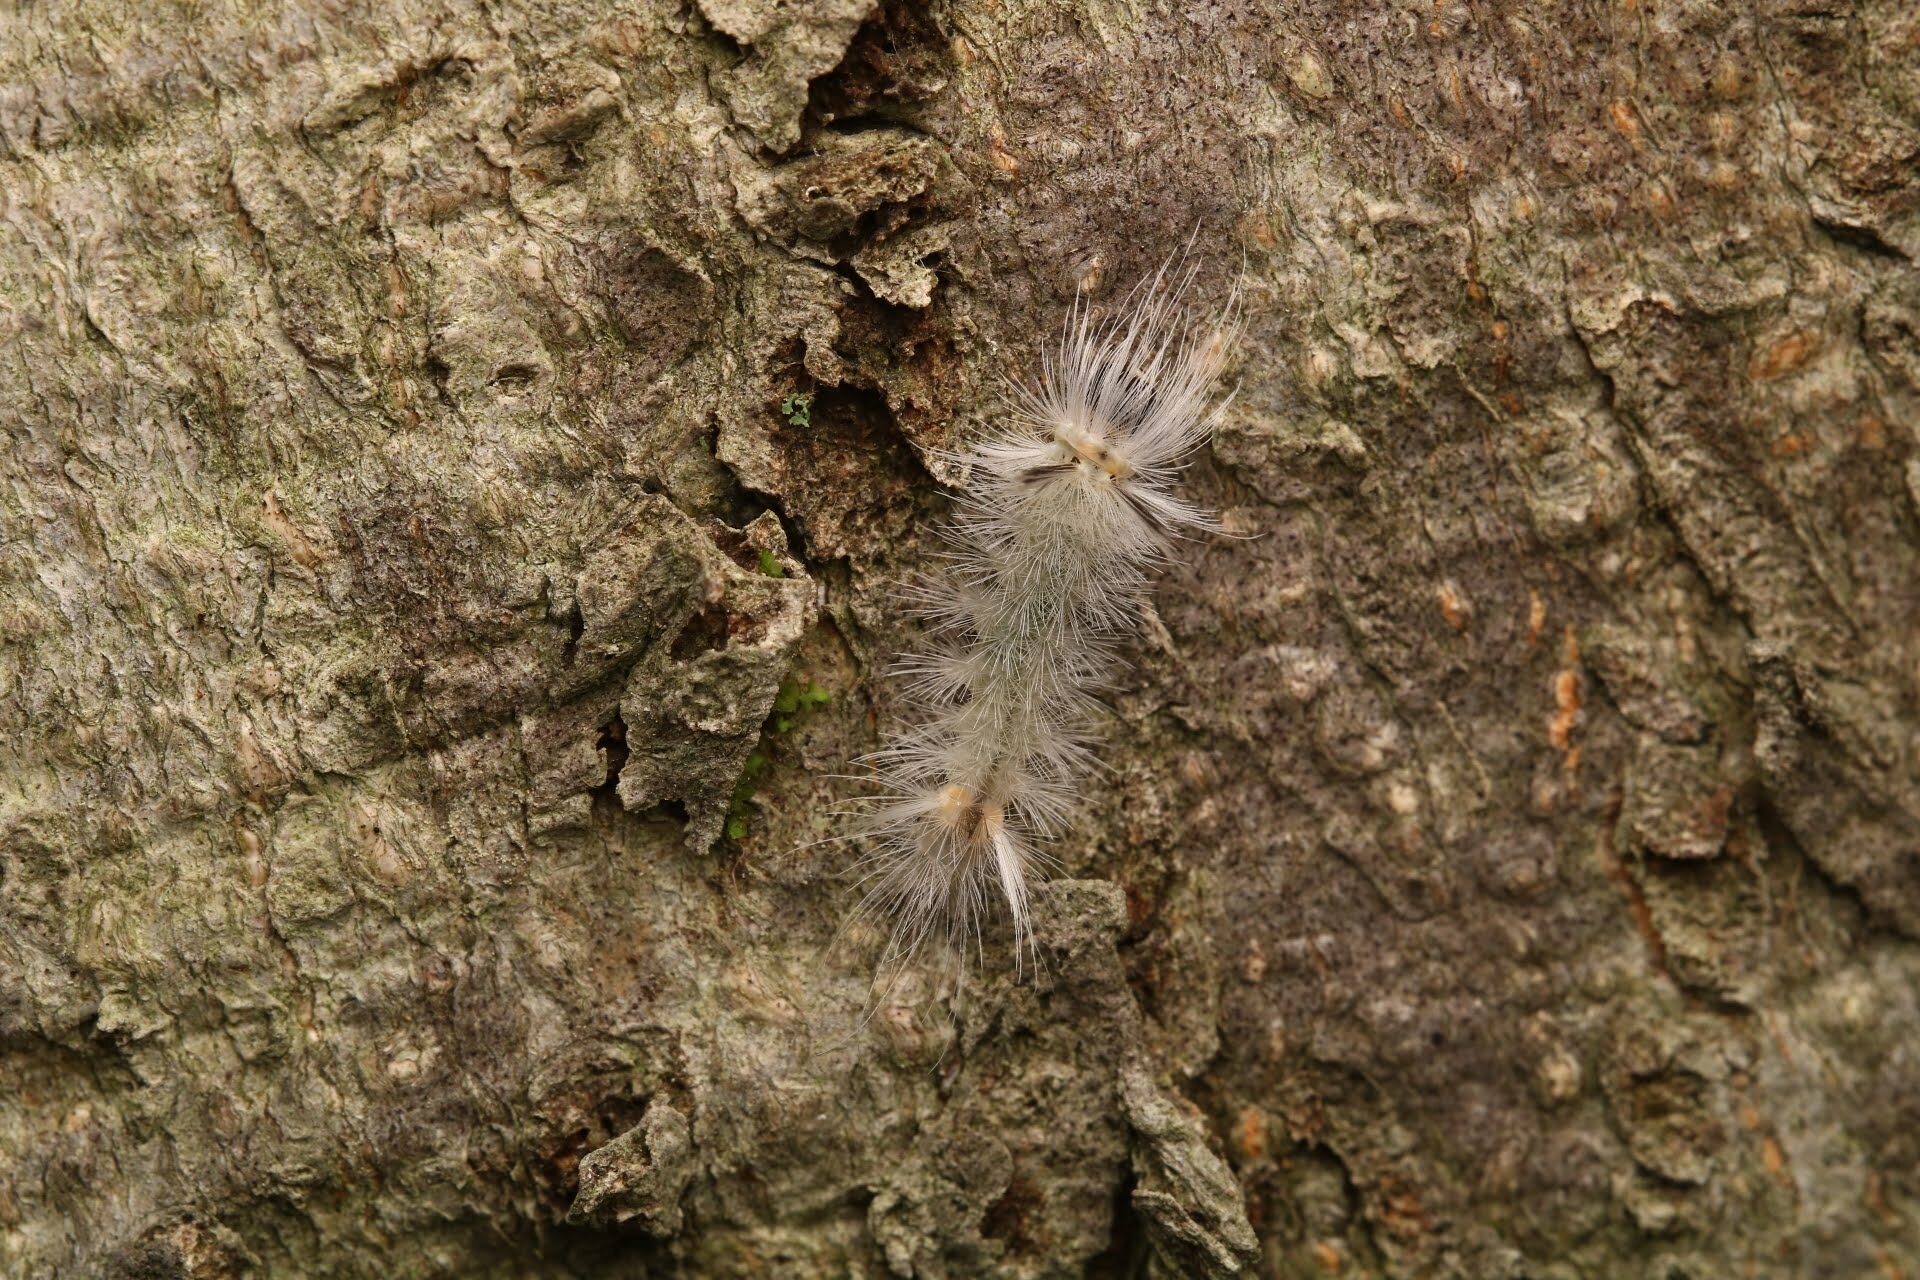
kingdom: Animalia
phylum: Arthropoda
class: Insecta
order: Lepidoptera
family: Erebidae
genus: Halysidota
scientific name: Halysidota tessellaris
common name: Banded tussock moth
